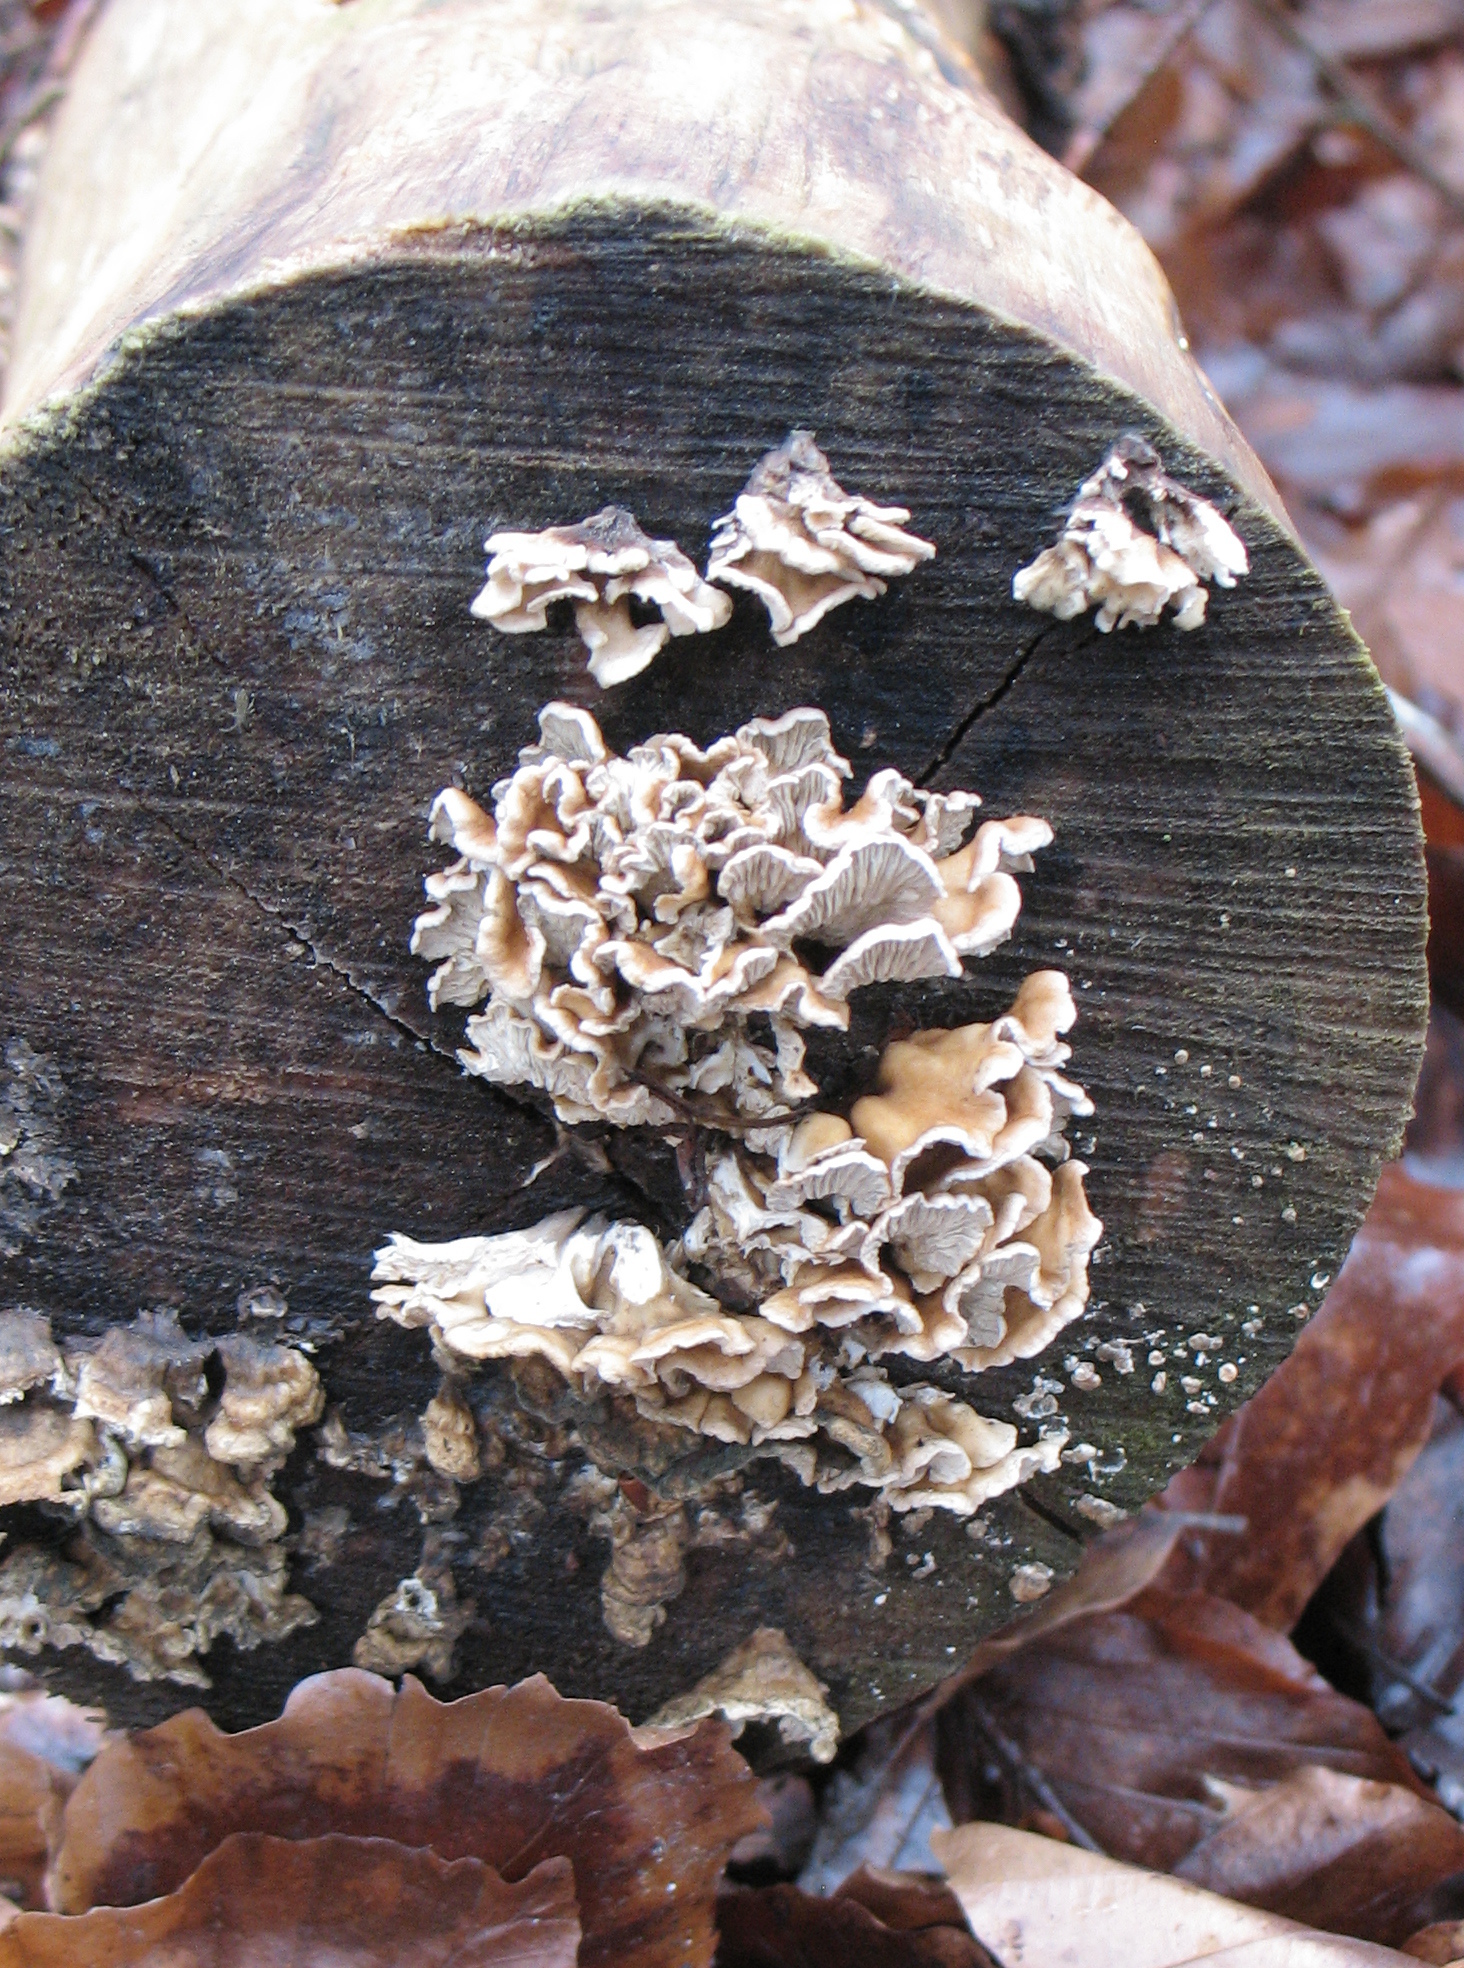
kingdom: Fungi
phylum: Basidiomycota
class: Agaricomycetes
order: Amylocorticiales
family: Amylocorticiaceae
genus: Plicaturopsis
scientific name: Plicaturopsis crispa
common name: Crimped gill
